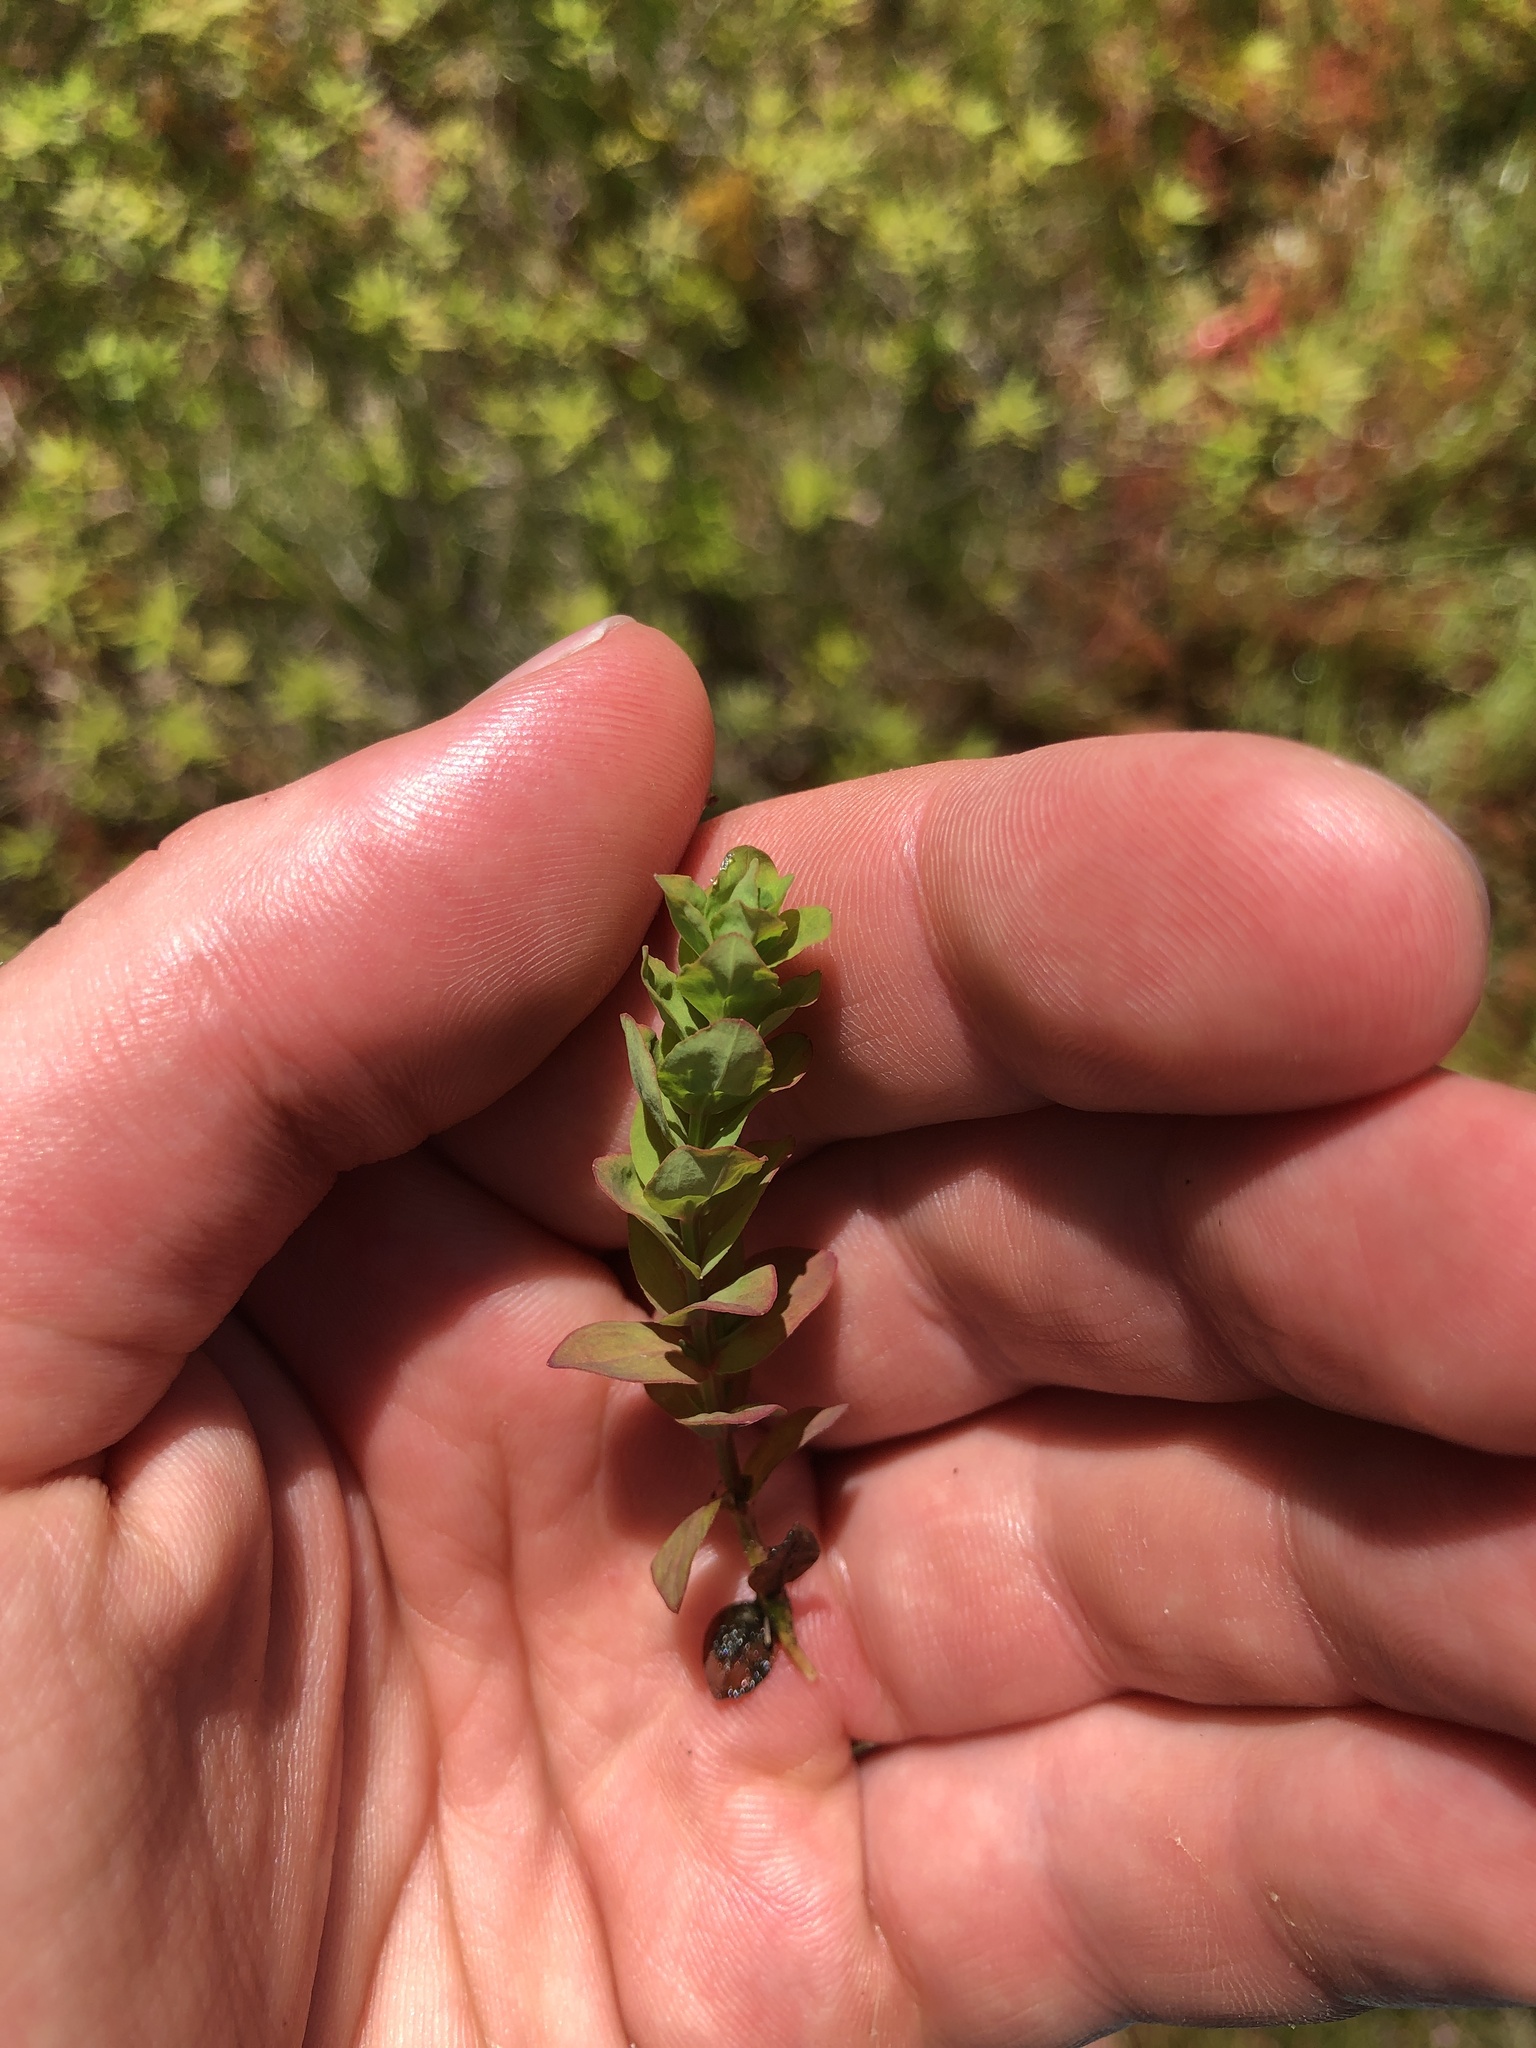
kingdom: Plantae
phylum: Tracheophyta
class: Magnoliopsida
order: Malpighiales
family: Hypericaceae
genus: Hypericum
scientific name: Hypericum anagalloides
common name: Bog st. john's-wort
